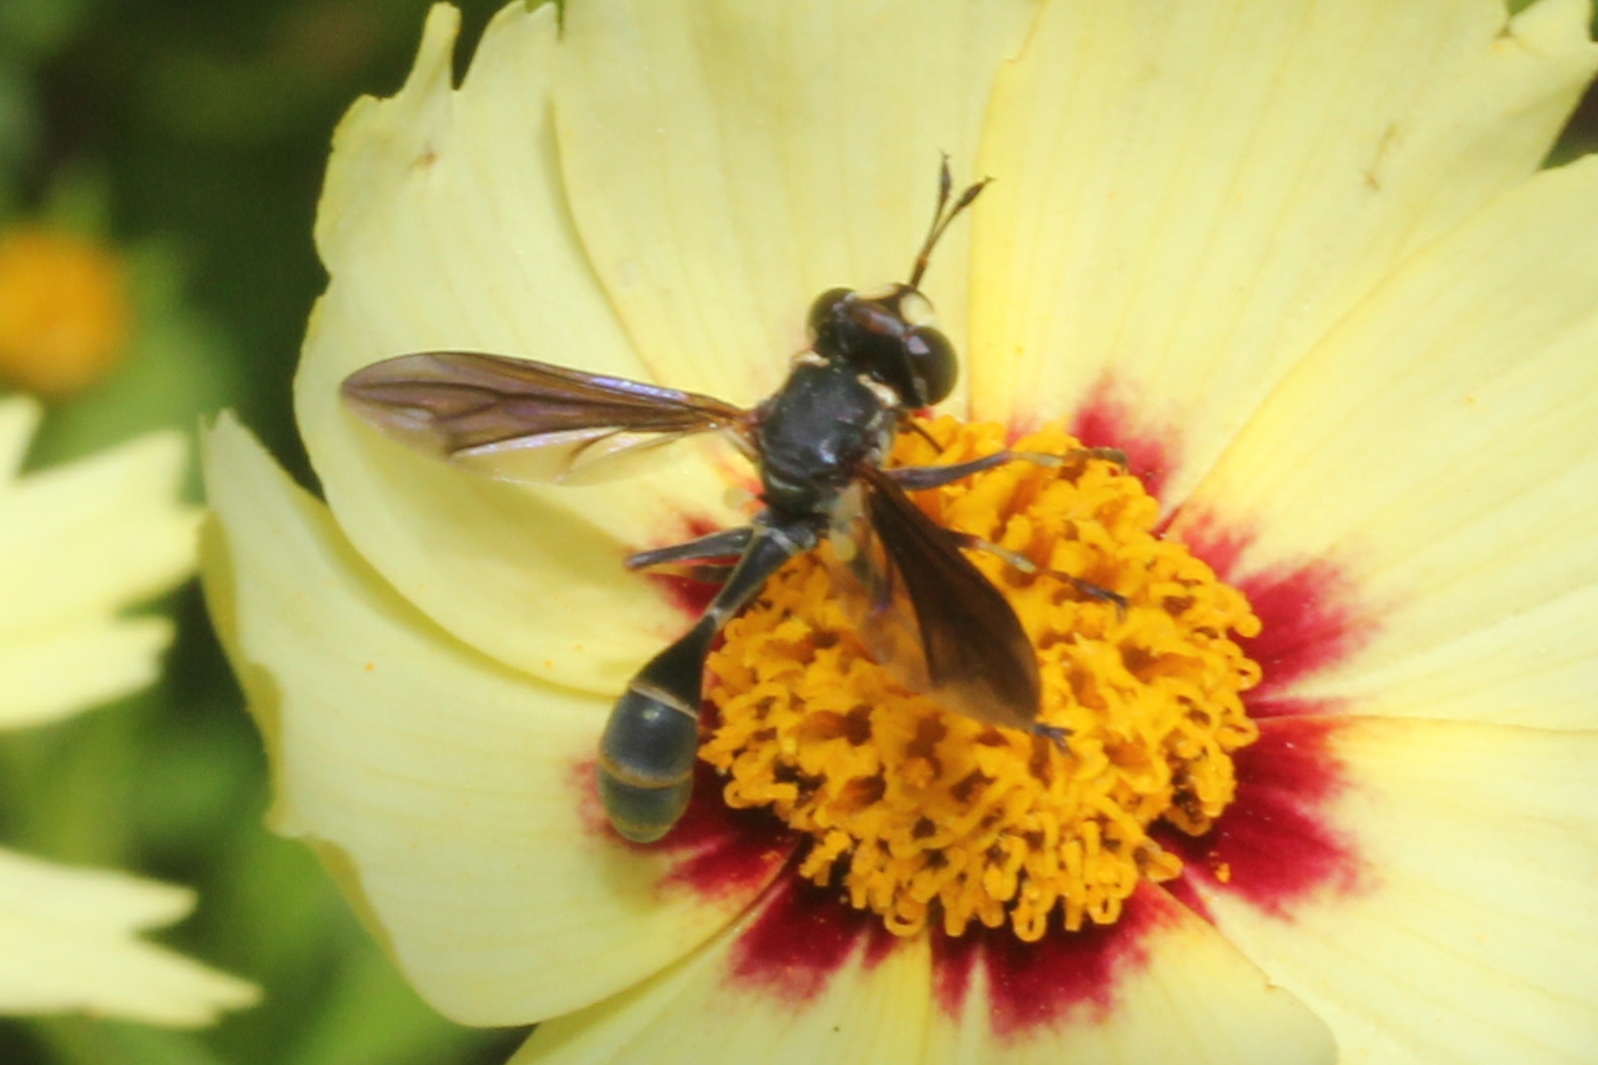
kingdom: Animalia
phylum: Arthropoda
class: Insecta
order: Diptera
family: Conopidae
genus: Physocephala
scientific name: Physocephala sagittaria
